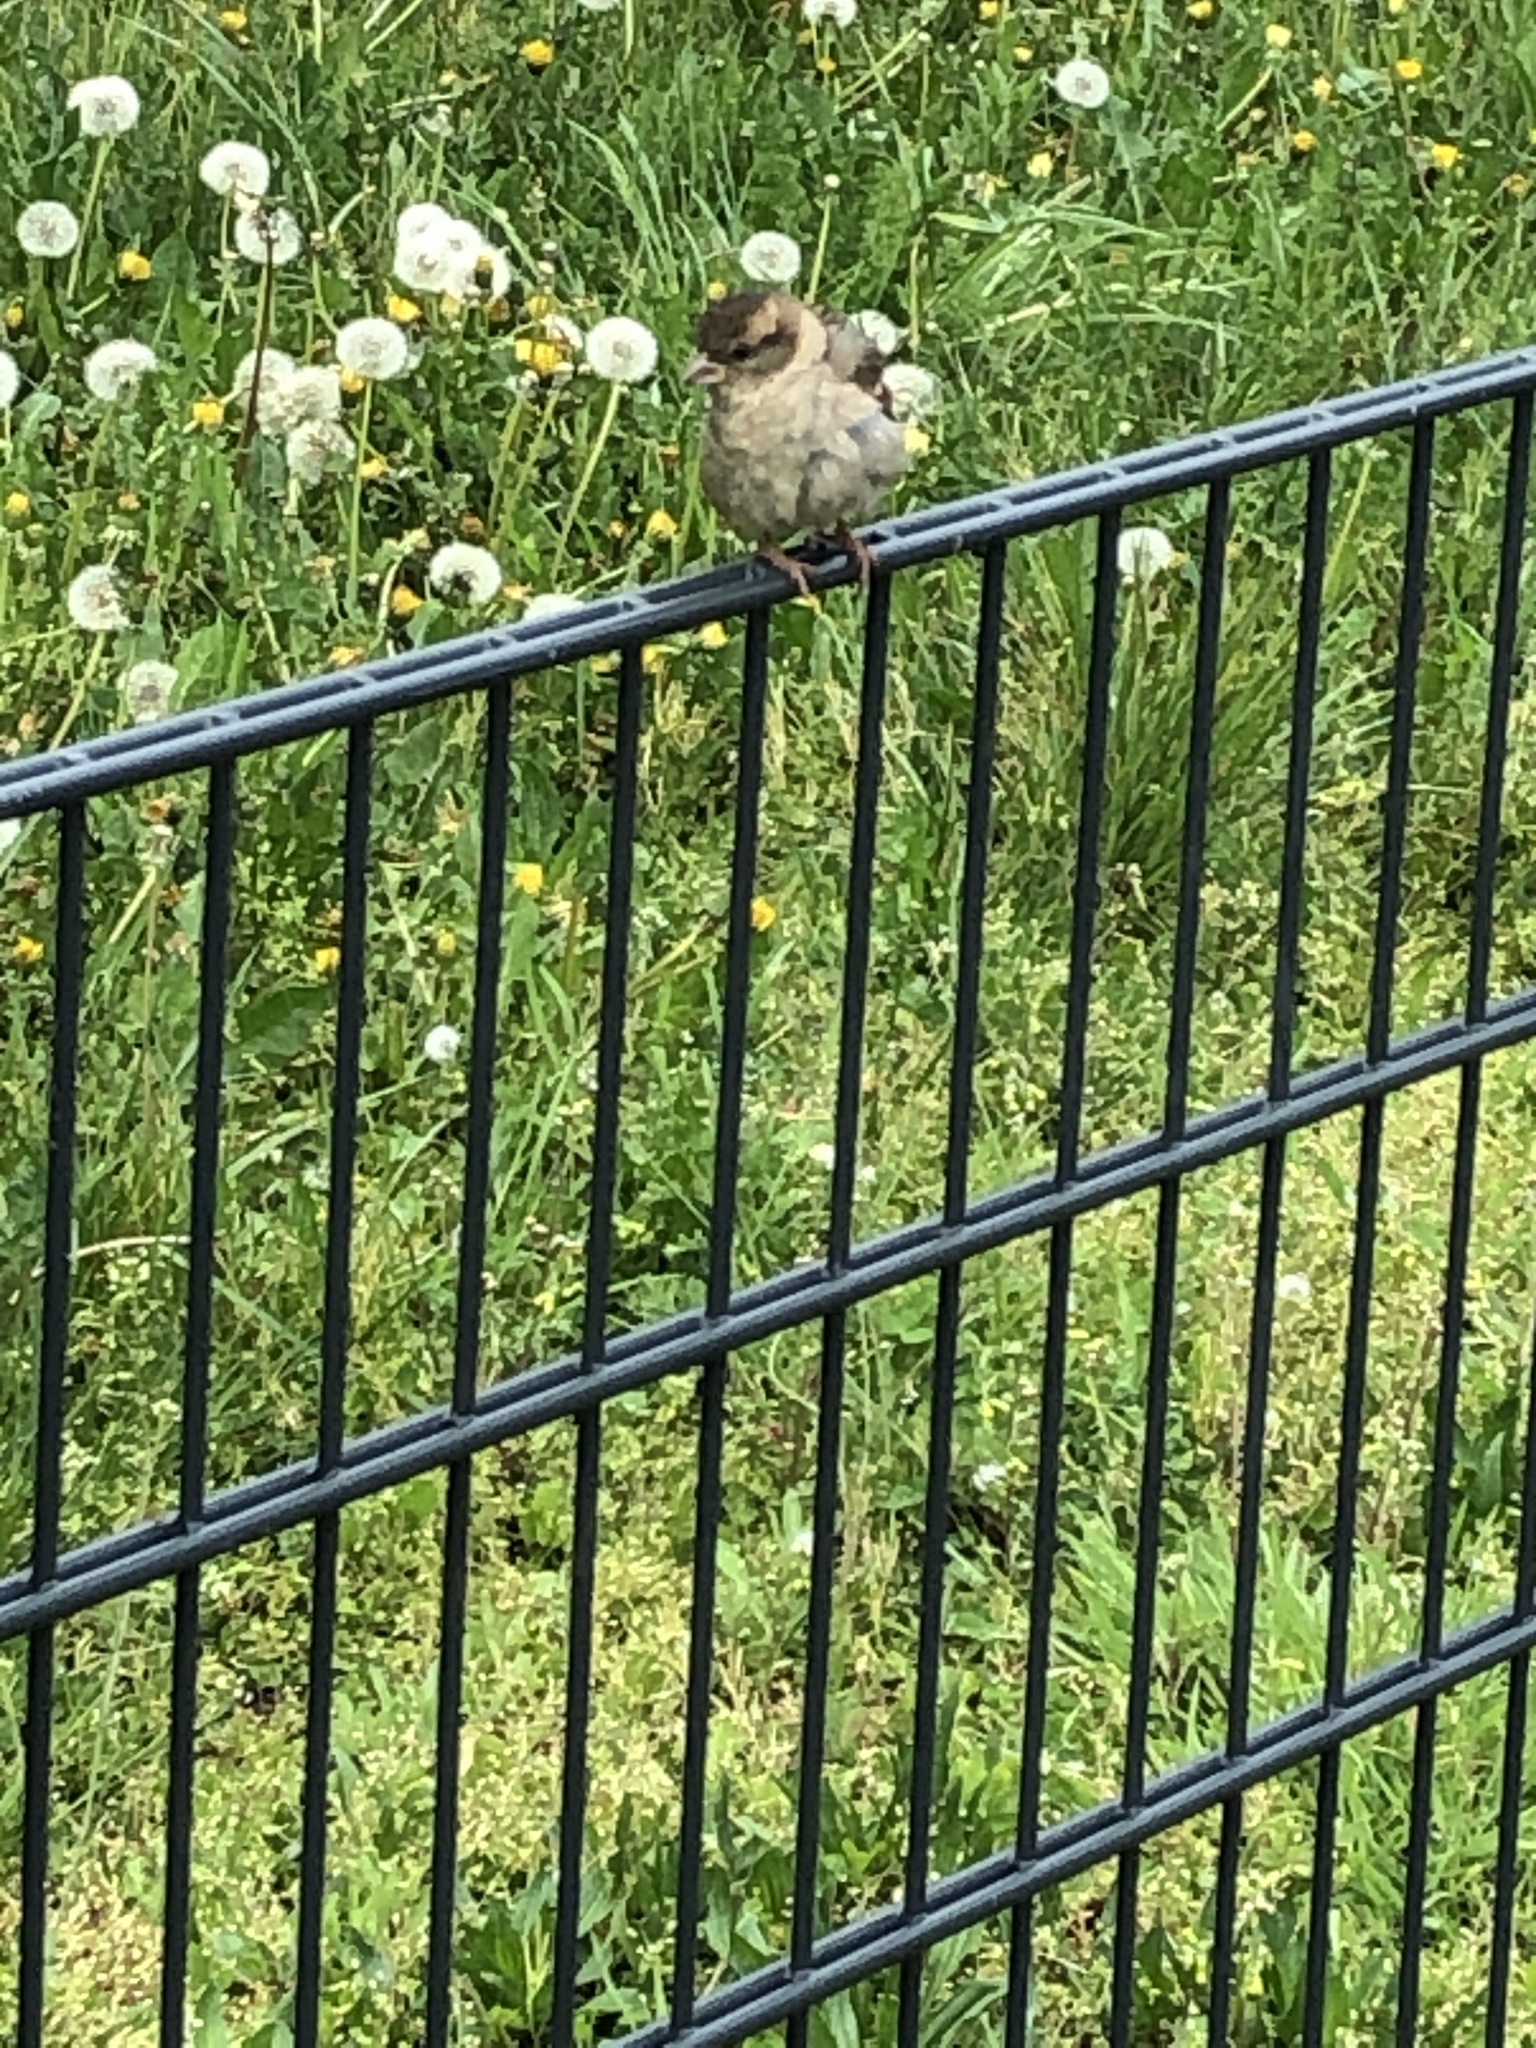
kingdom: Animalia
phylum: Chordata
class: Aves
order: Passeriformes
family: Passeridae
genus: Passer
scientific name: Passer domesticus
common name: House sparrow
